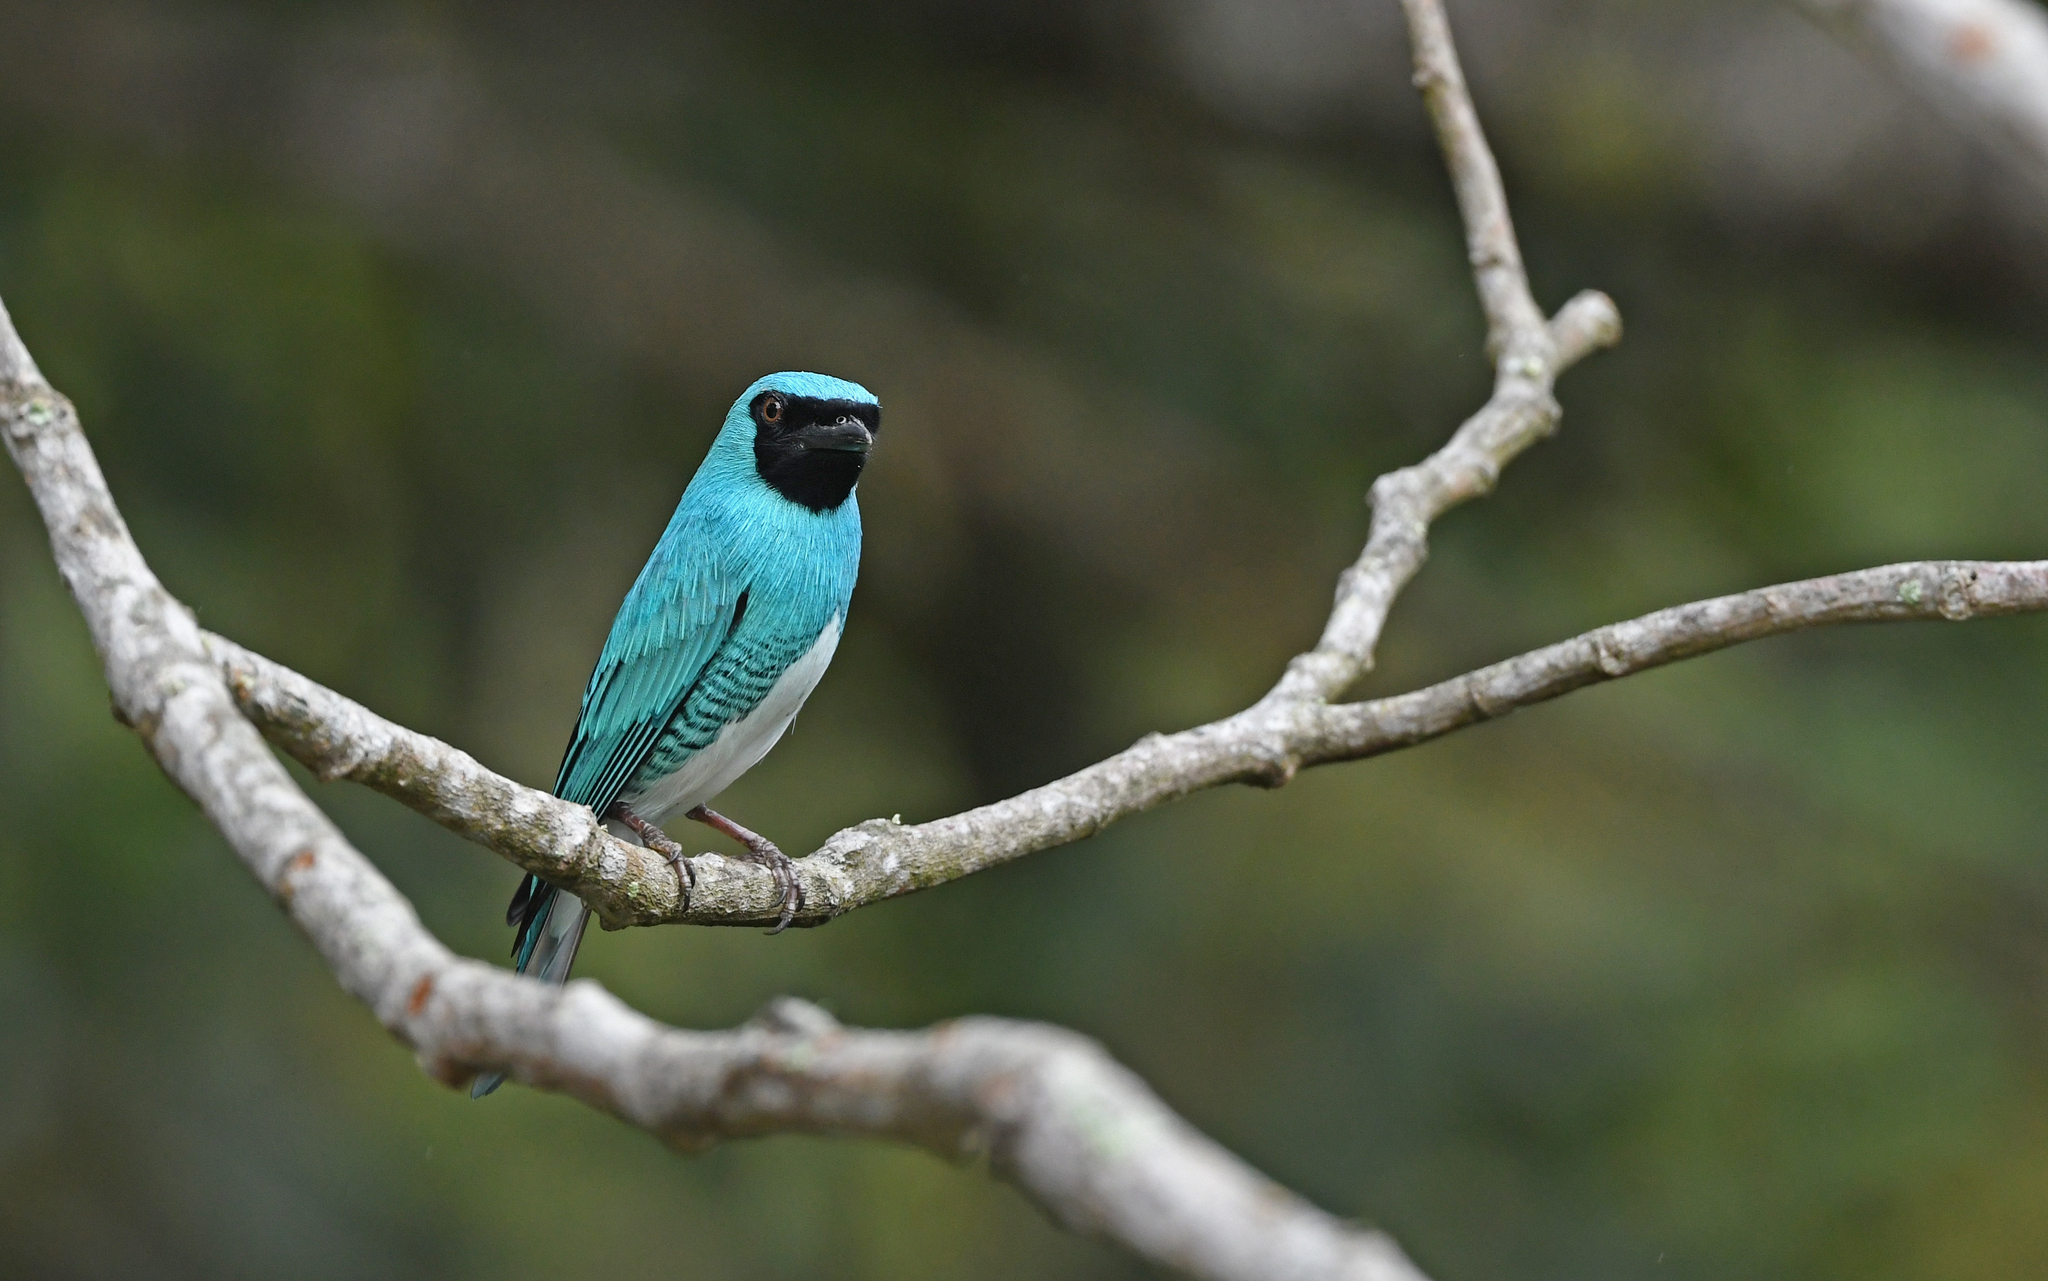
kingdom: Animalia
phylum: Chordata
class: Aves
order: Passeriformes
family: Thraupidae
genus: Tersina
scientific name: Tersina viridis
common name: Swallow tanager
